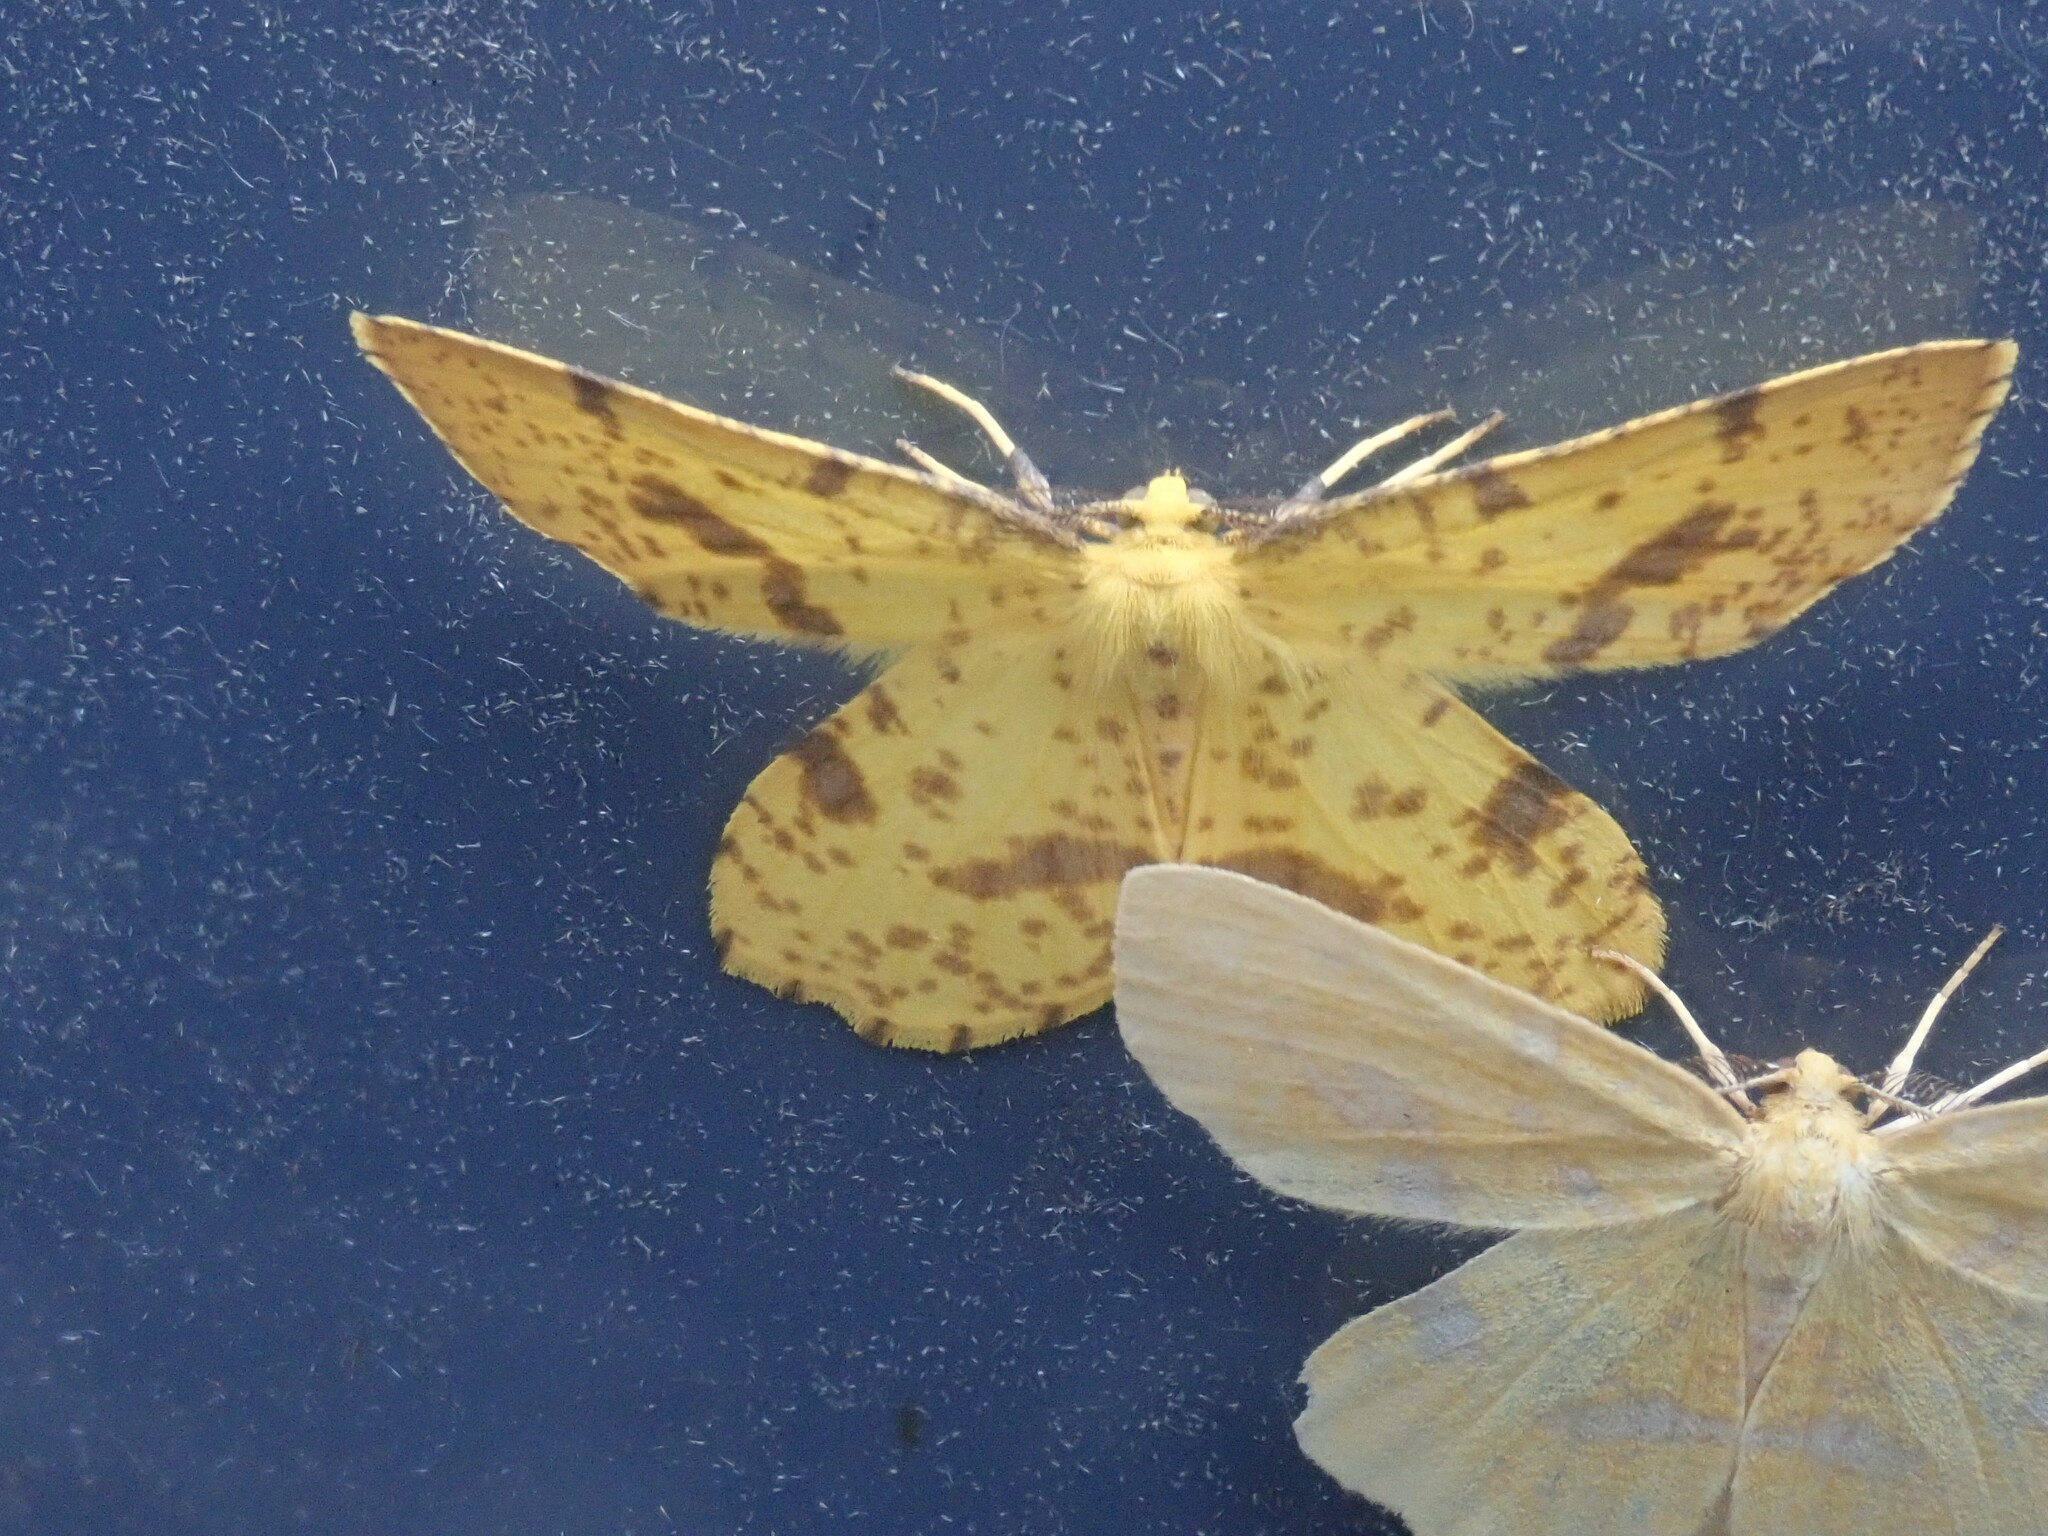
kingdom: Animalia
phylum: Arthropoda
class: Insecta
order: Lepidoptera
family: Geometridae
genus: Xanthotype
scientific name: Xanthotype
